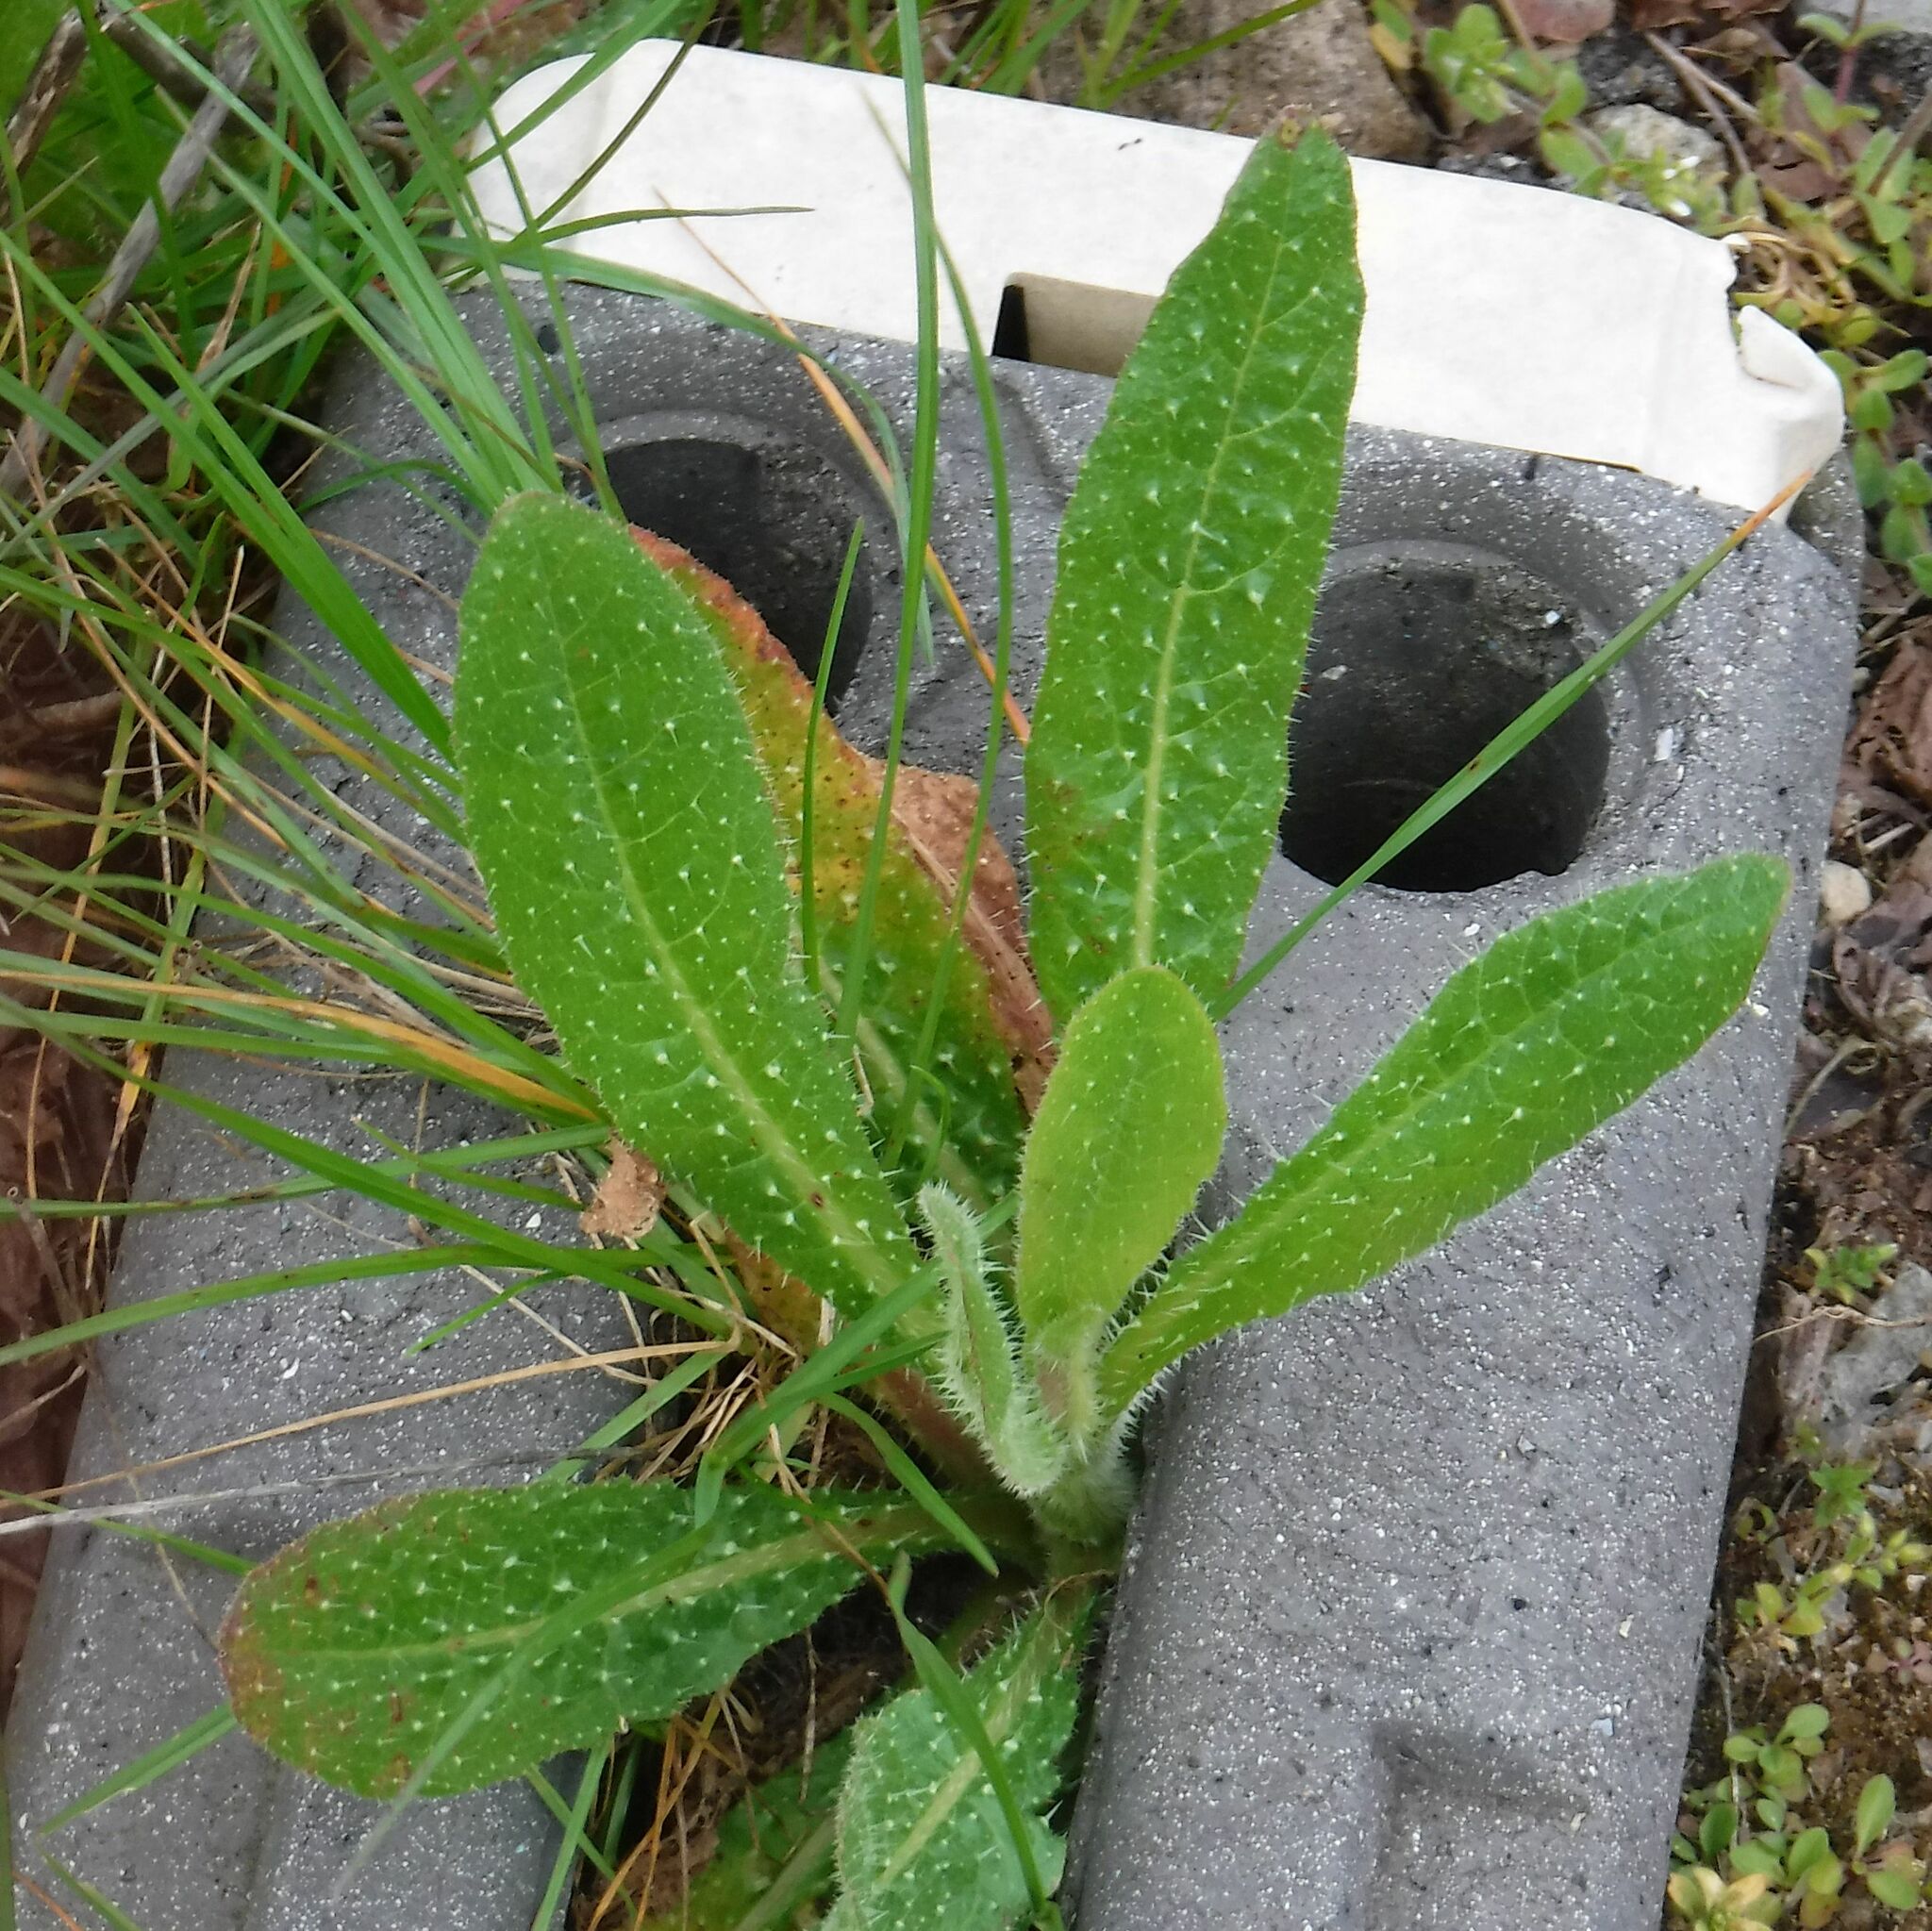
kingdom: Plantae
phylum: Tracheophyta
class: Magnoliopsida
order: Asterales
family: Asteraceae
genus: Helminthotheca
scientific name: Helminthotheca echioides
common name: Ox-tongue
